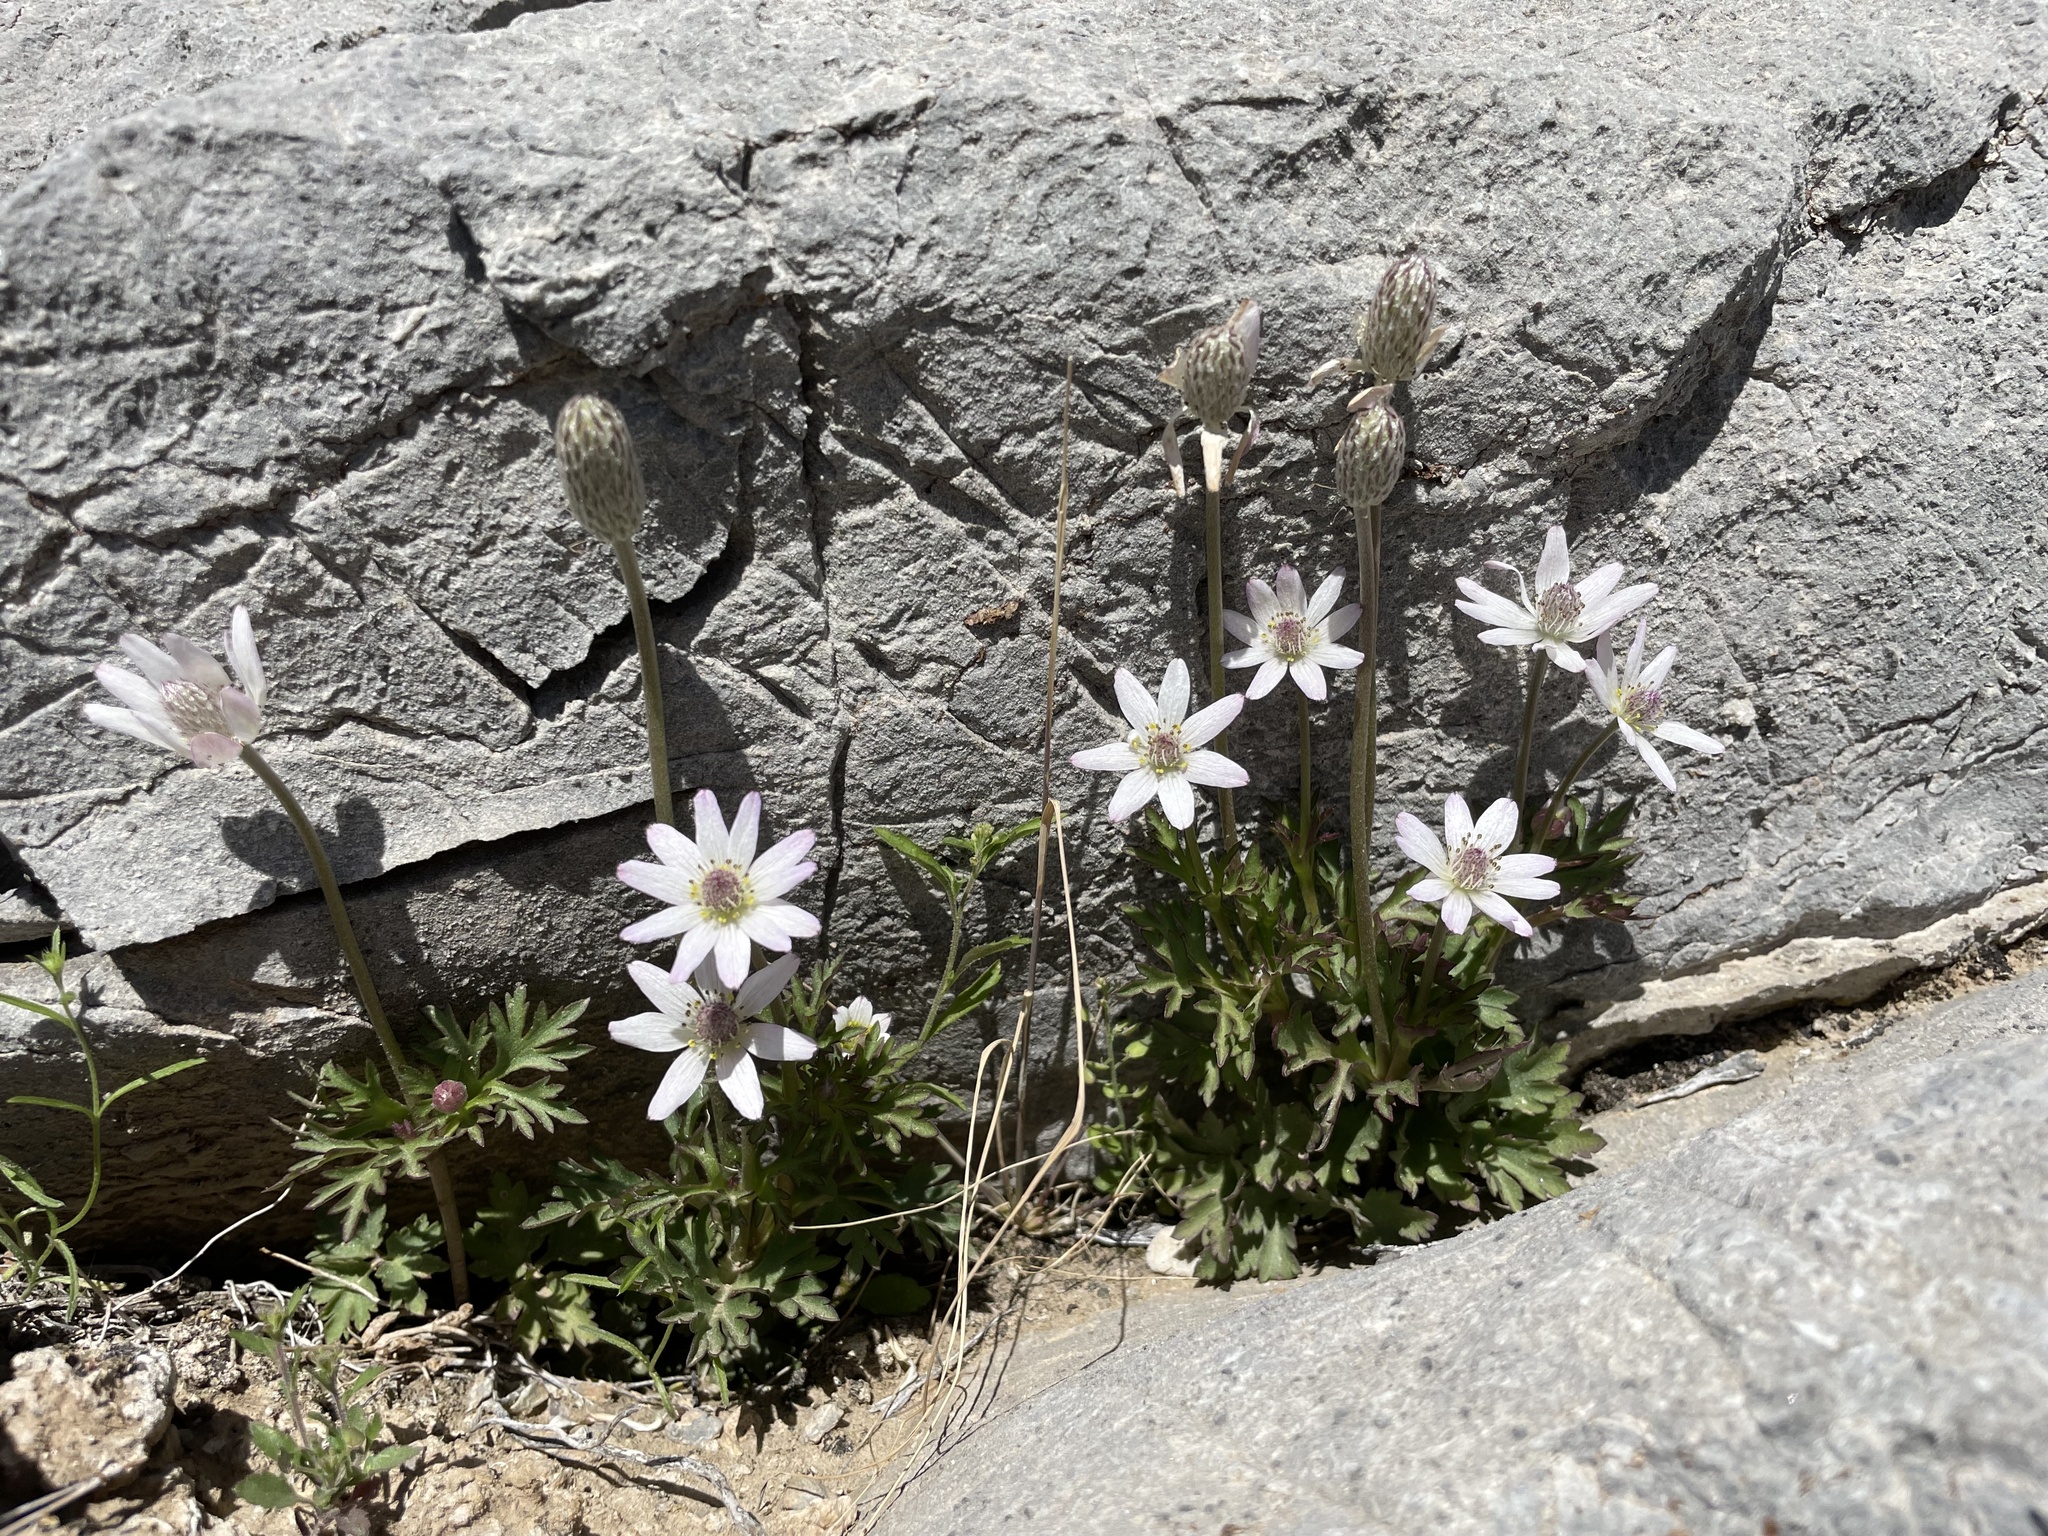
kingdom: Plantae
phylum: Tracheophyta
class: Magnoliopsida
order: Ranunculales
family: Ranunculaceae
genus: Anemone
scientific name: Anemone tuberosa
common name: Desert anemone
